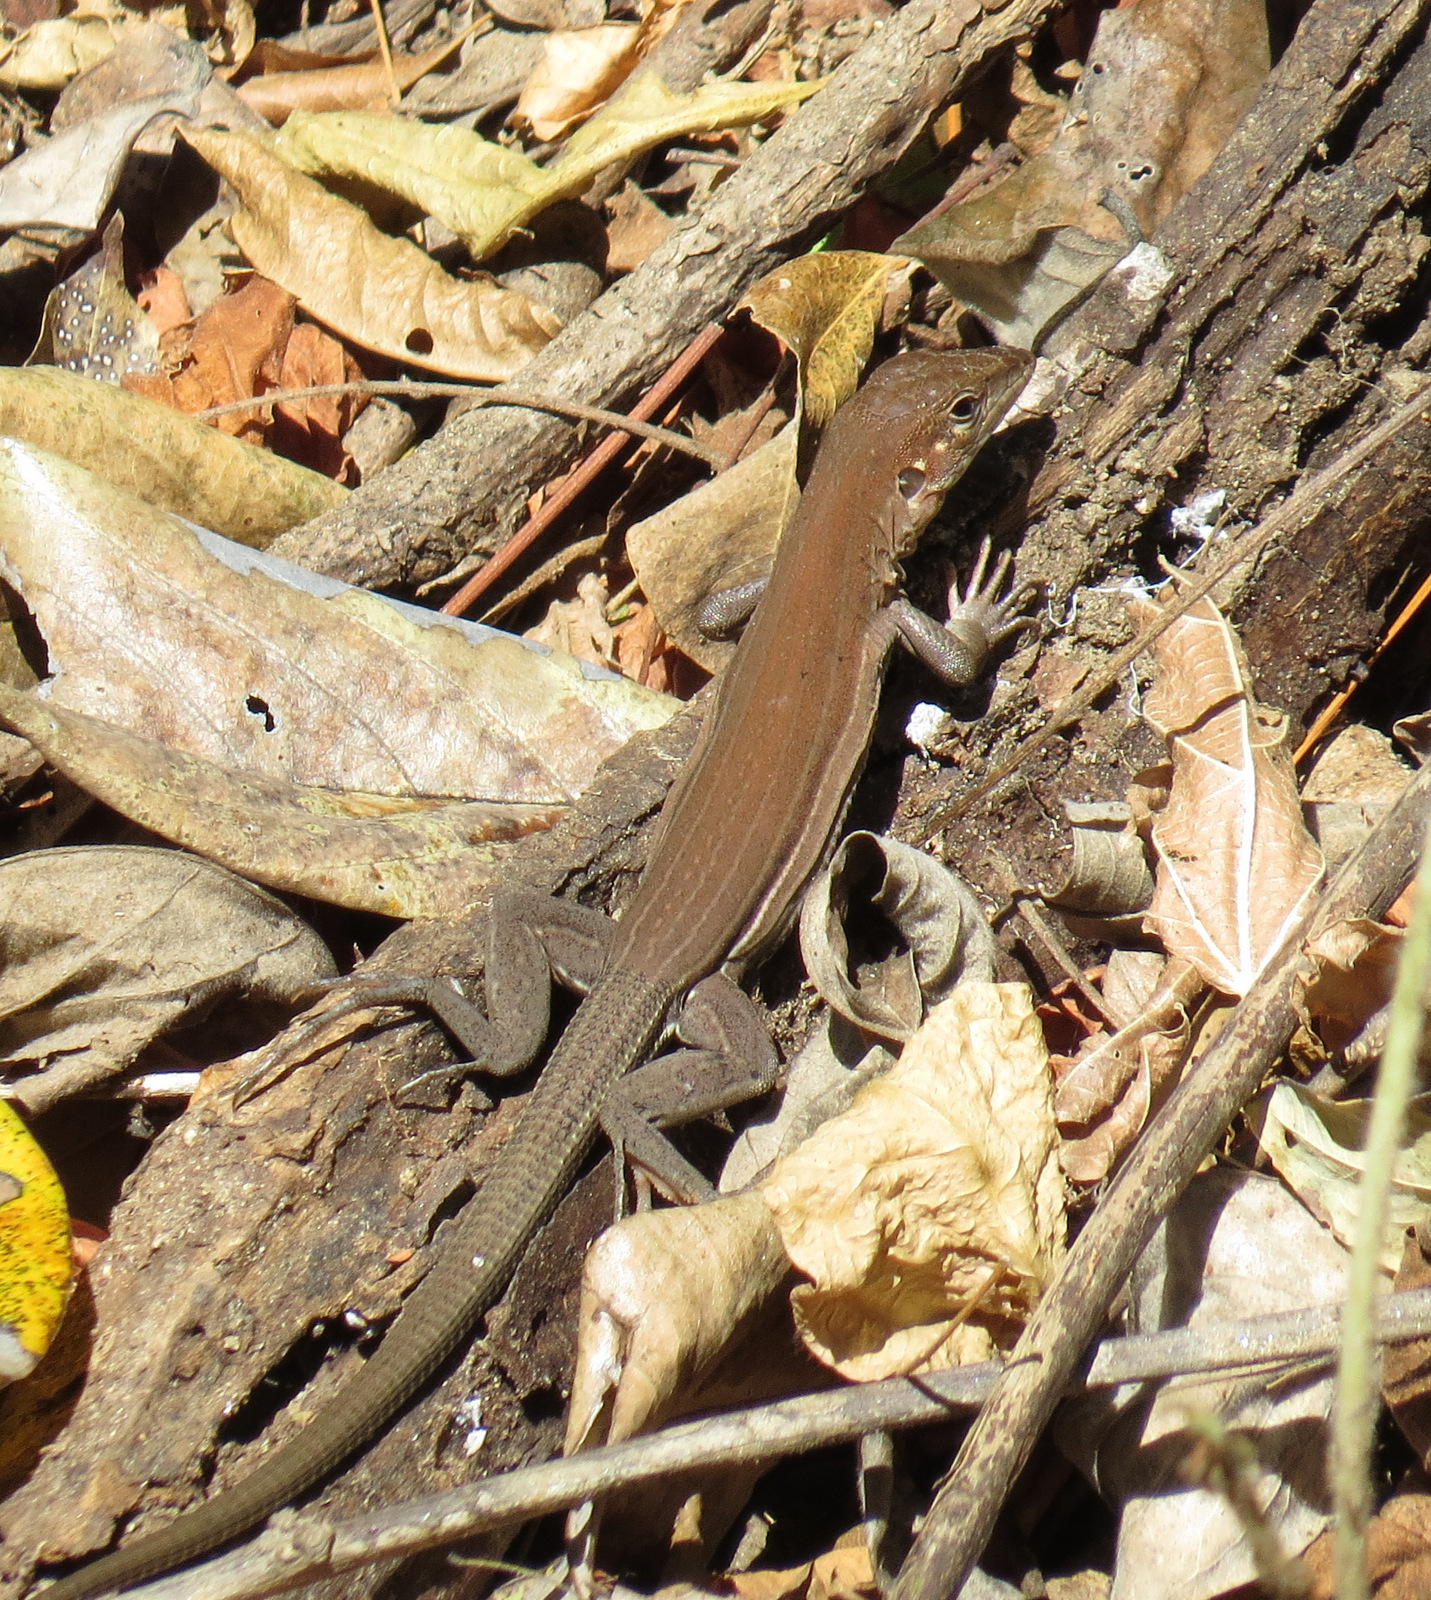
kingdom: Animalia
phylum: Chordata
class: Squamata
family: Teiidae
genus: Aspidoscelis
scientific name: Aspidoscelis guttatus
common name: Mexican racerunner
